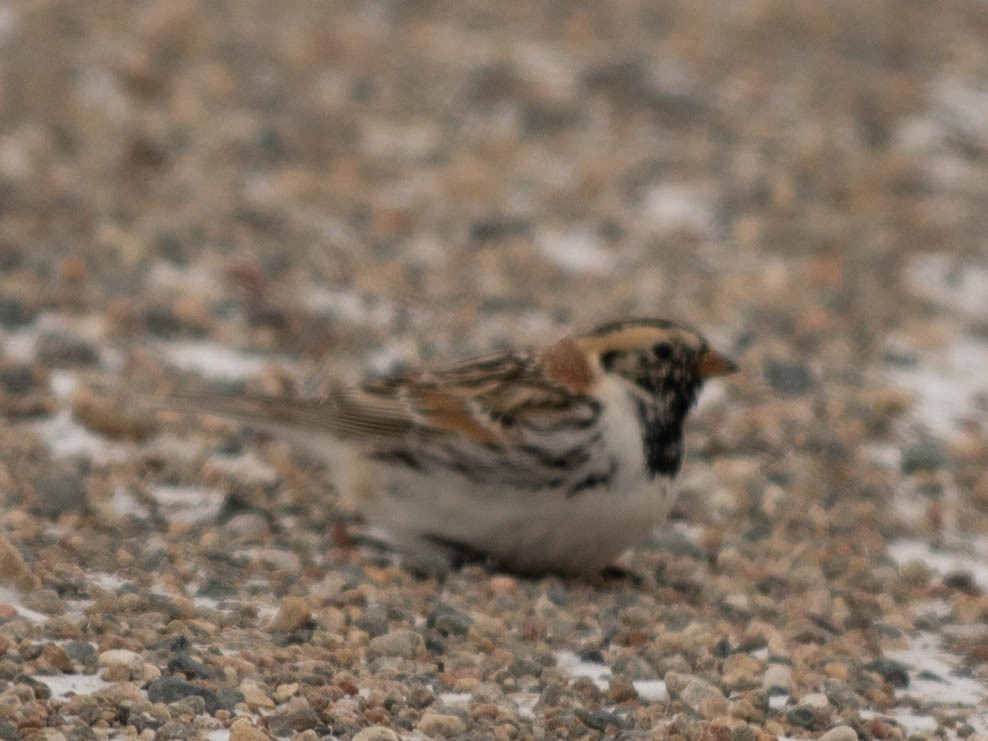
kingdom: Animalia
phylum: Chordata
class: Aves
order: Passeriformes
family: Calcariidae
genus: Calcarius
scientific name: Calcarius lapponicus
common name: Lapland longspur
